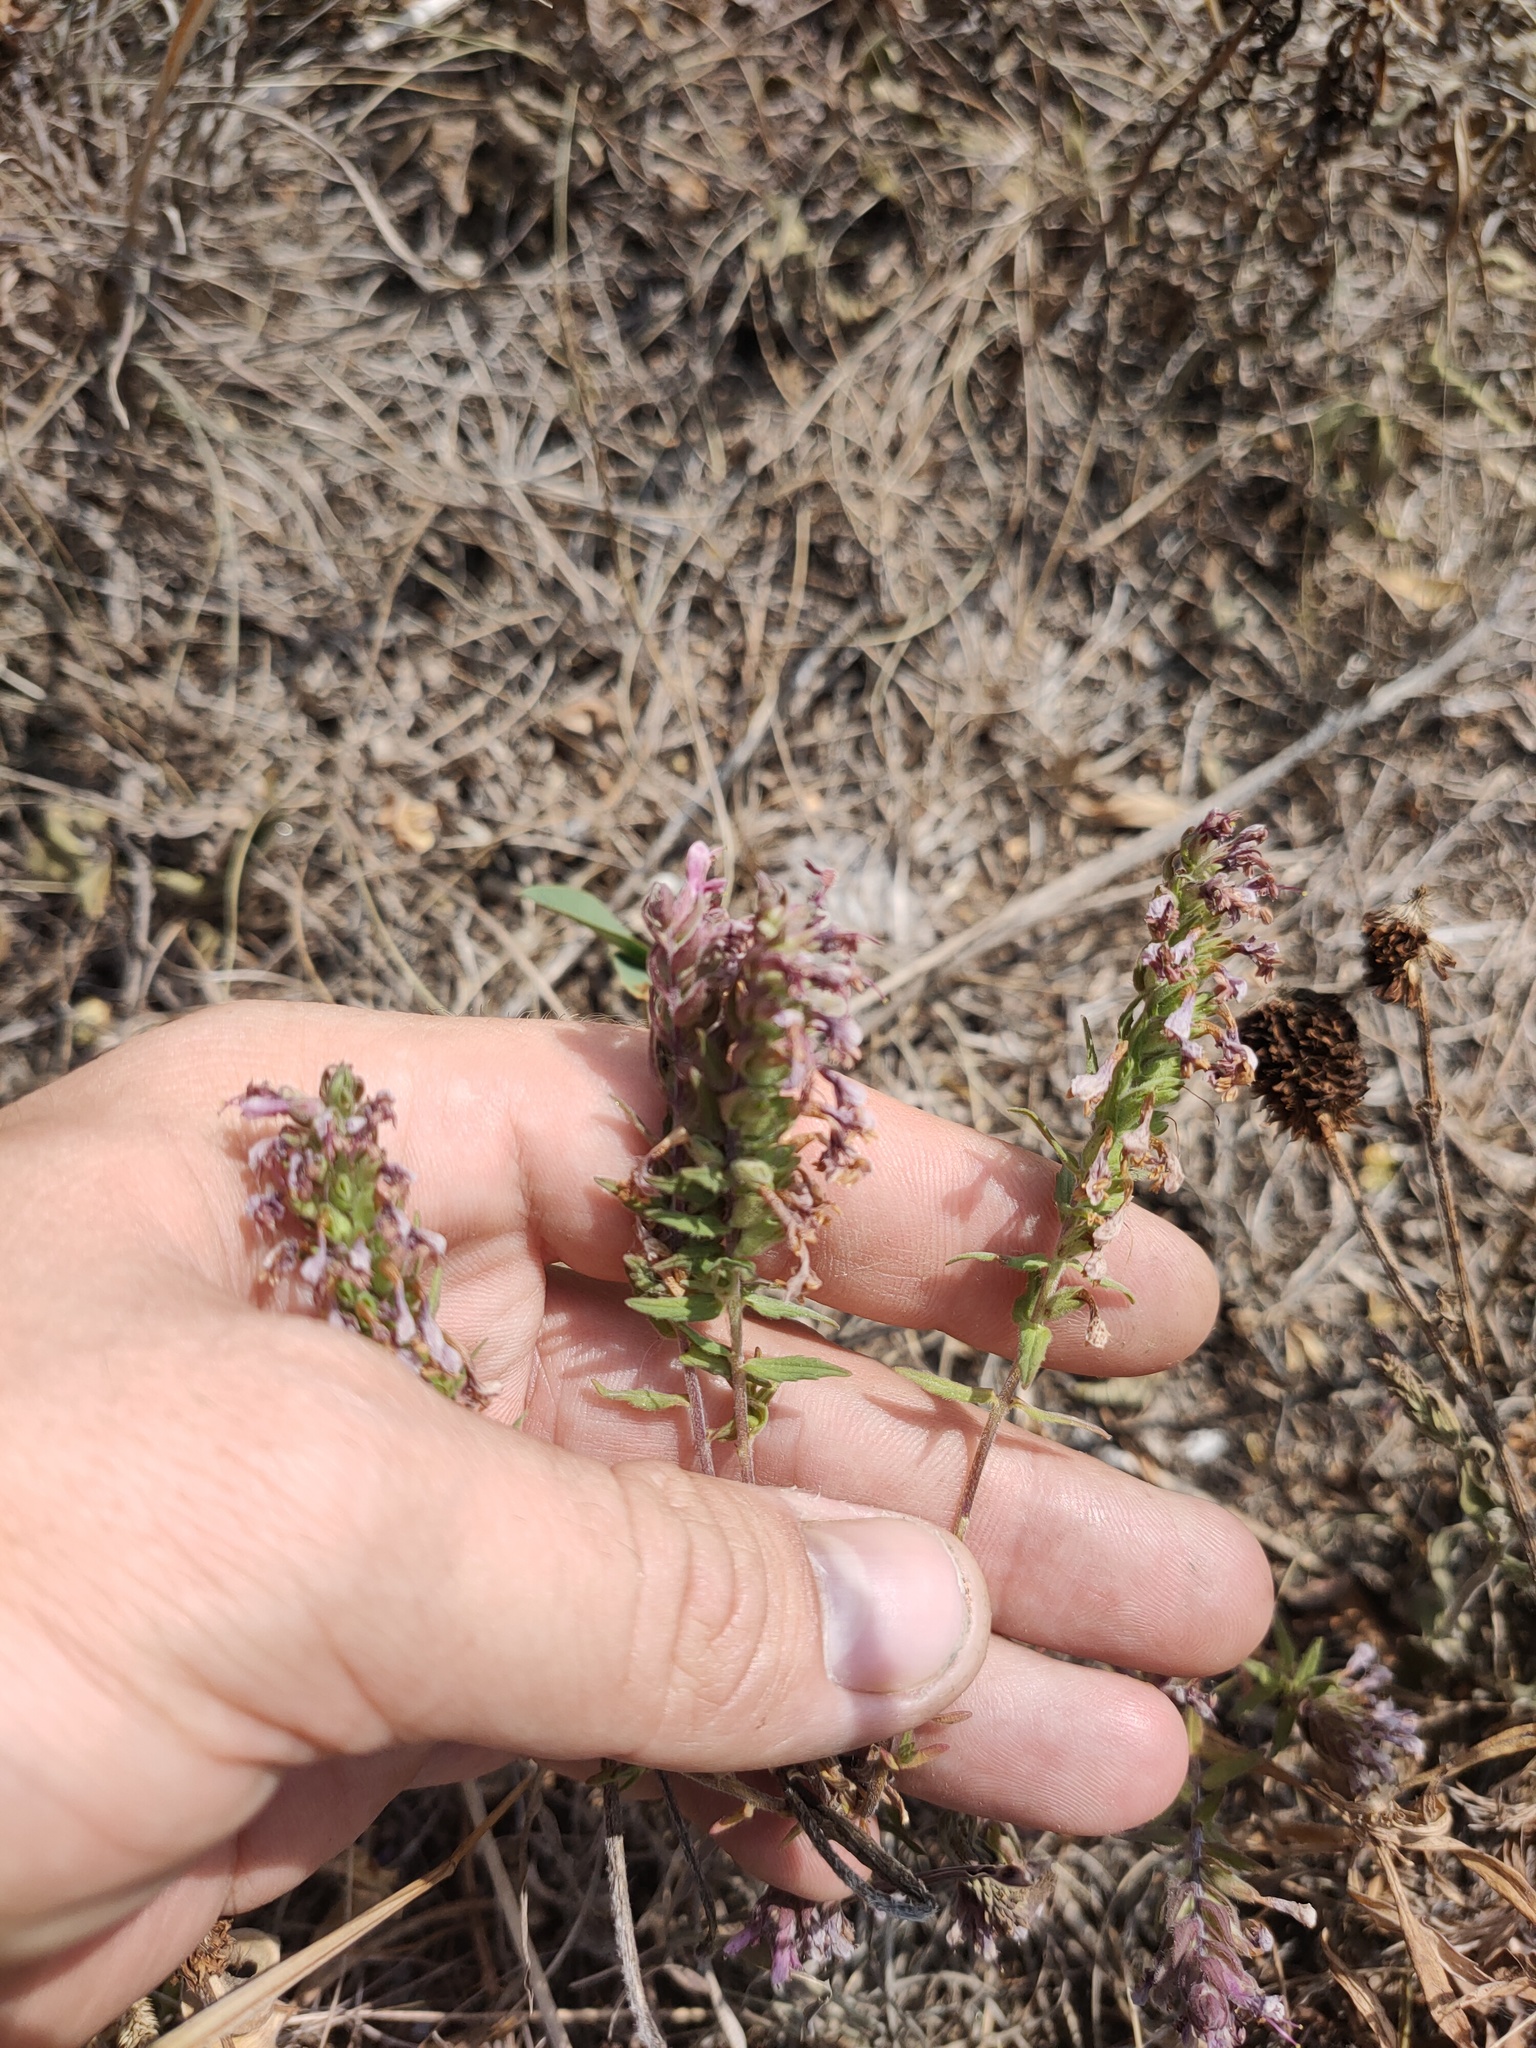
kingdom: Plantae
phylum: Tracheophyta
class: Magnoliopsida
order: Lamiales
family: Orobanchaceae
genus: Odontites
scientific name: Odontites vulgaris
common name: Broomrape
